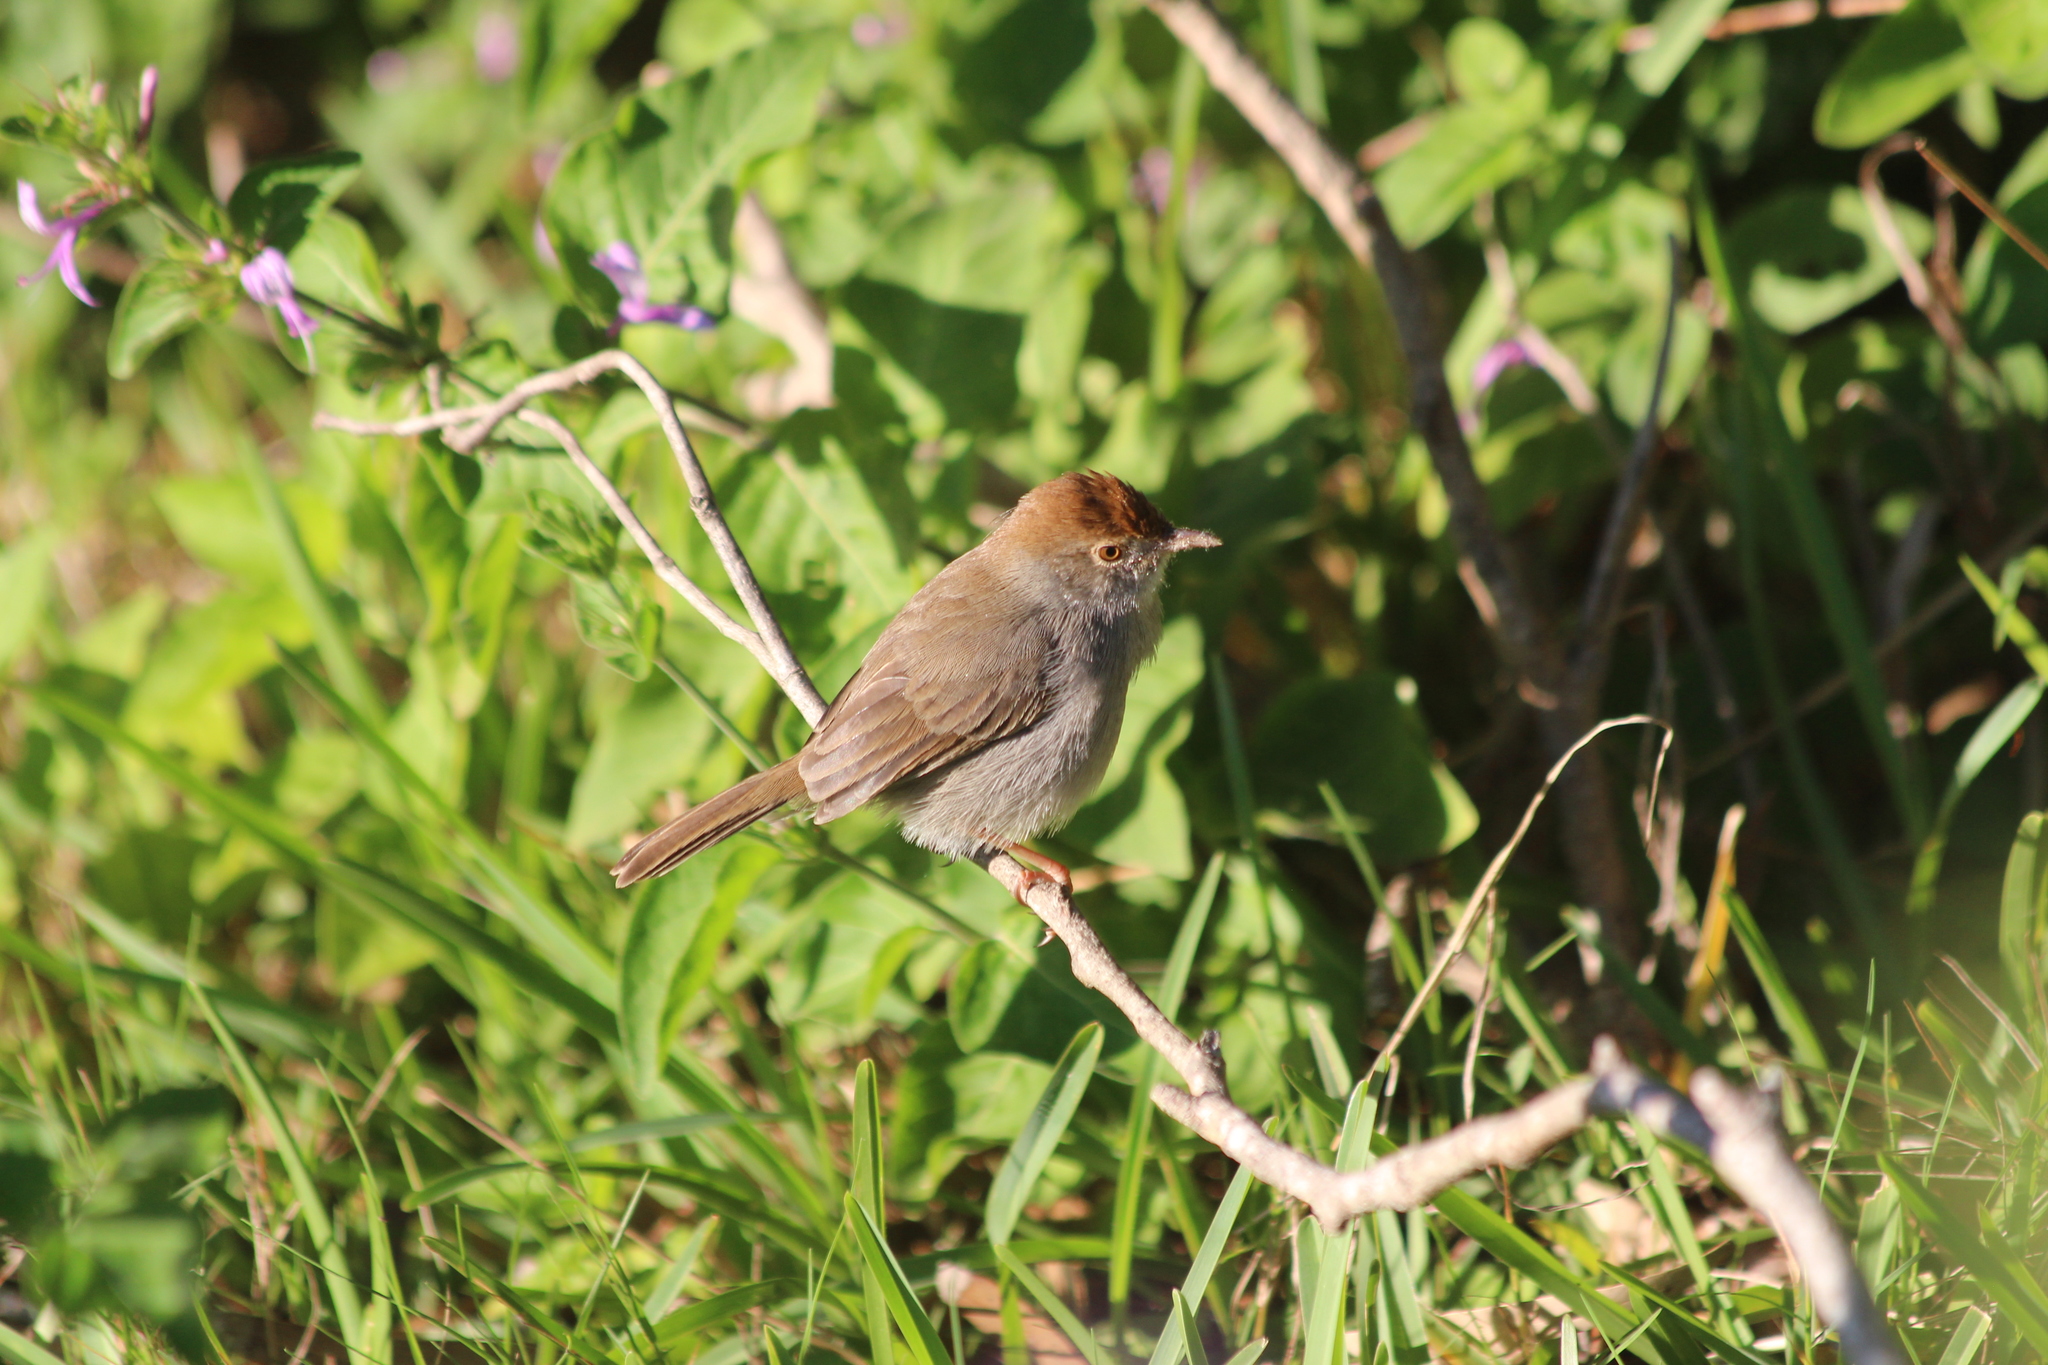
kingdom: Animalia
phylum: Chordata
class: Aves
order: Passeriformes
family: Cisticolidae
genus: Cisticola
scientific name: Cisticola fulvicapilla
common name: Neddicky
